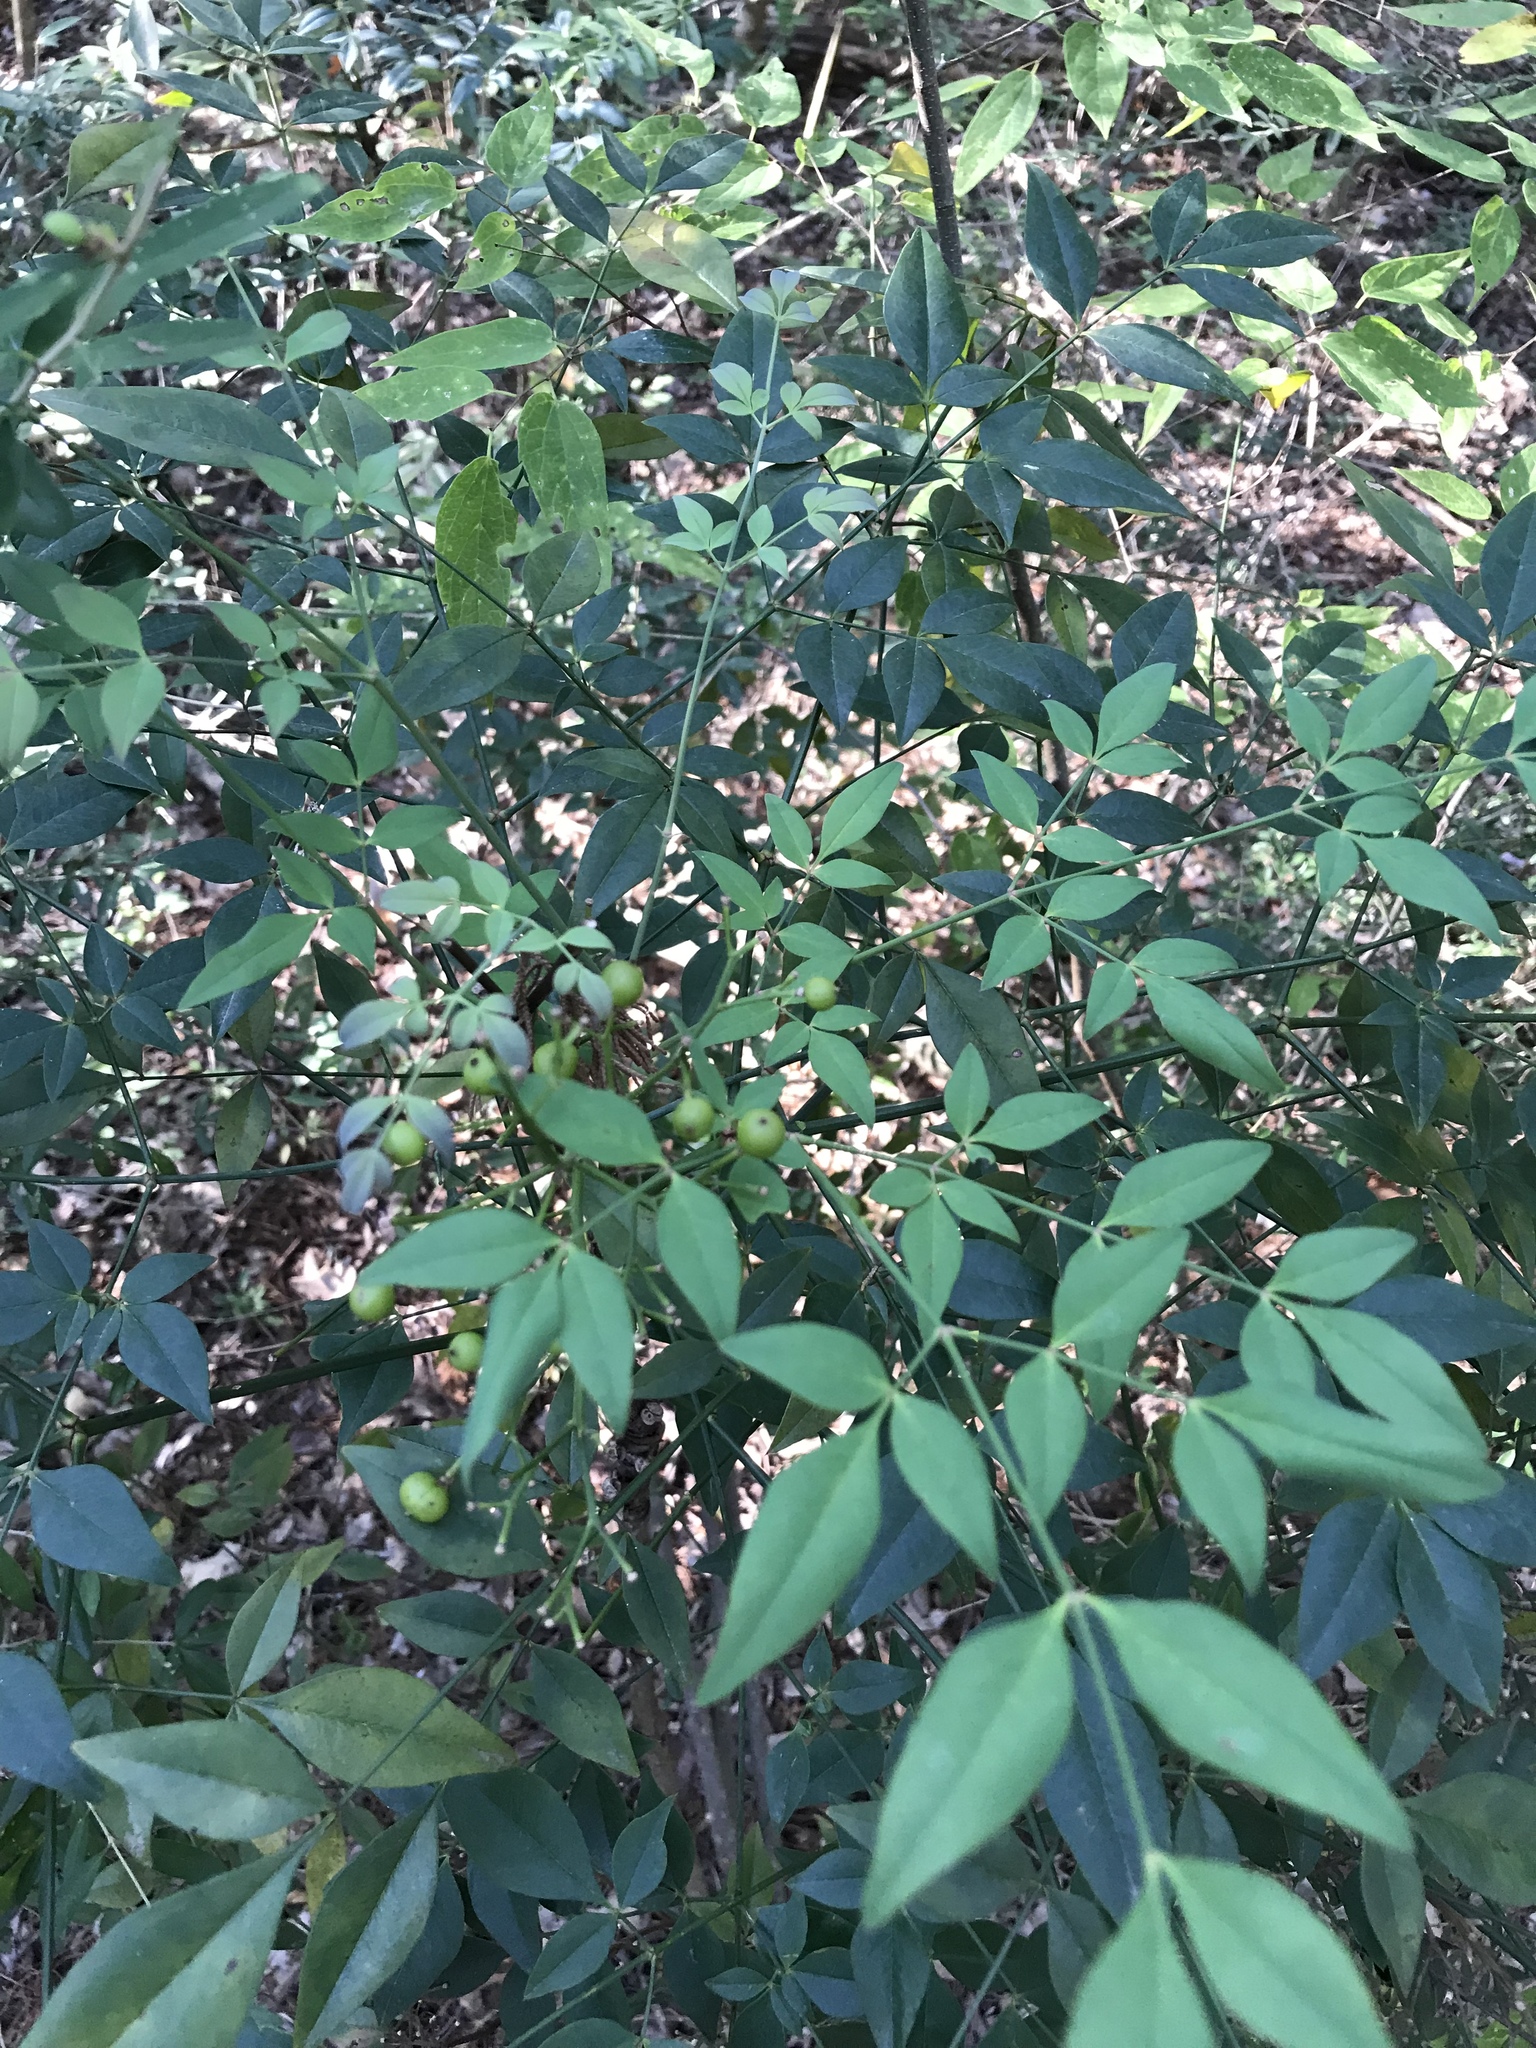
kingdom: Plantae
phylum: Tracheophyta
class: Magnoliopsida
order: Ranunculales
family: Berberidaceae
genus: Nandina
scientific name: Nandina domestica
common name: Sacred bamboo
